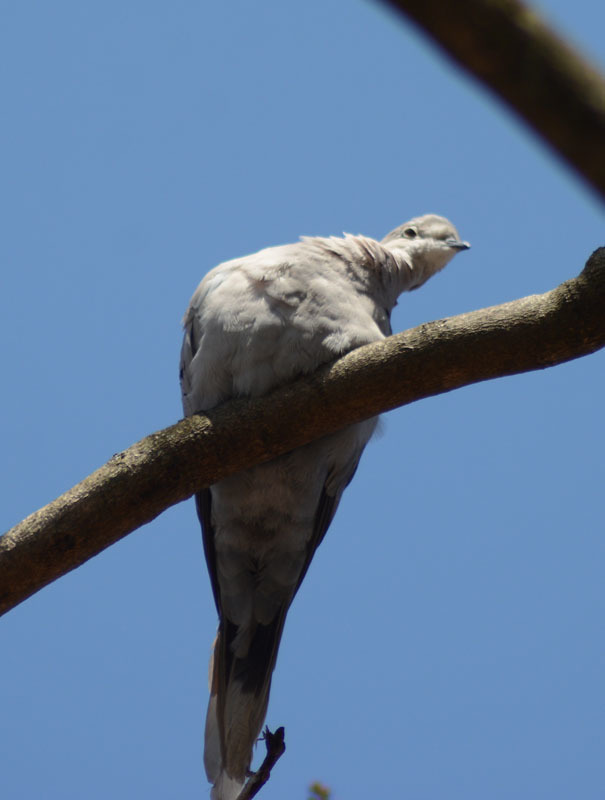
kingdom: Animalia
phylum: Chordata
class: Aves
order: Columbiformes
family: Columbidae
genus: Streptopelia
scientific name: Streptopelia decaocto
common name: Eurasian collared dove
